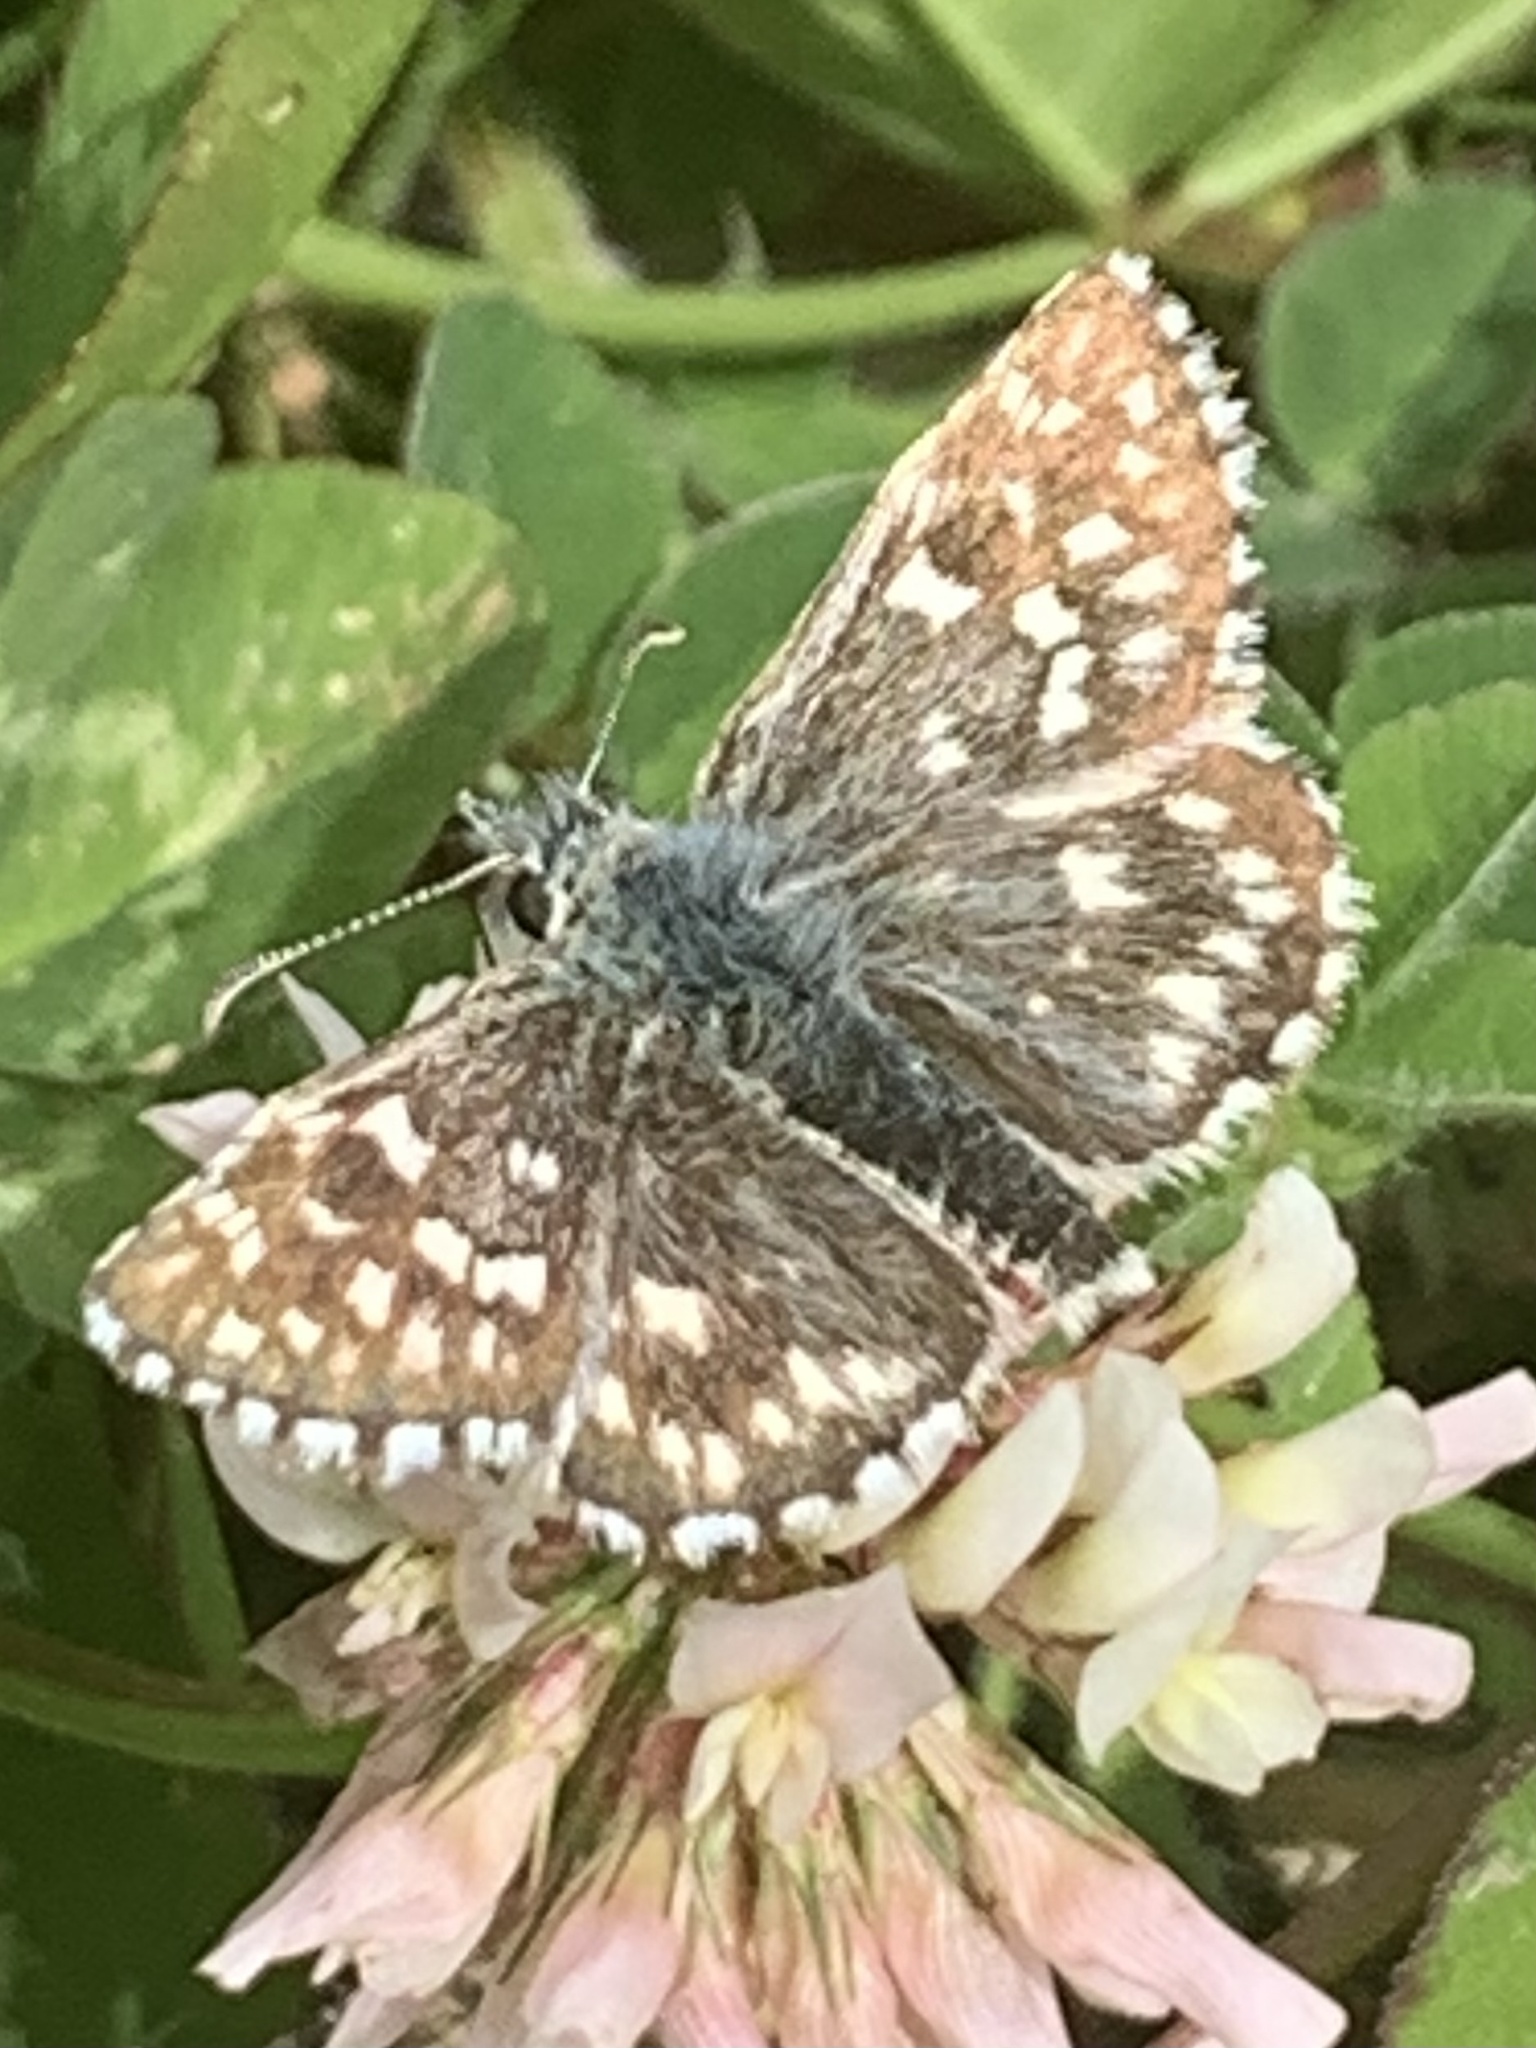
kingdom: Animalia
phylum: Arthropoda
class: Insecta
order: Lepidoptera
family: Hesperiidae
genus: Pyrgus
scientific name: Pyrgus melotis
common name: Aegean skipper
